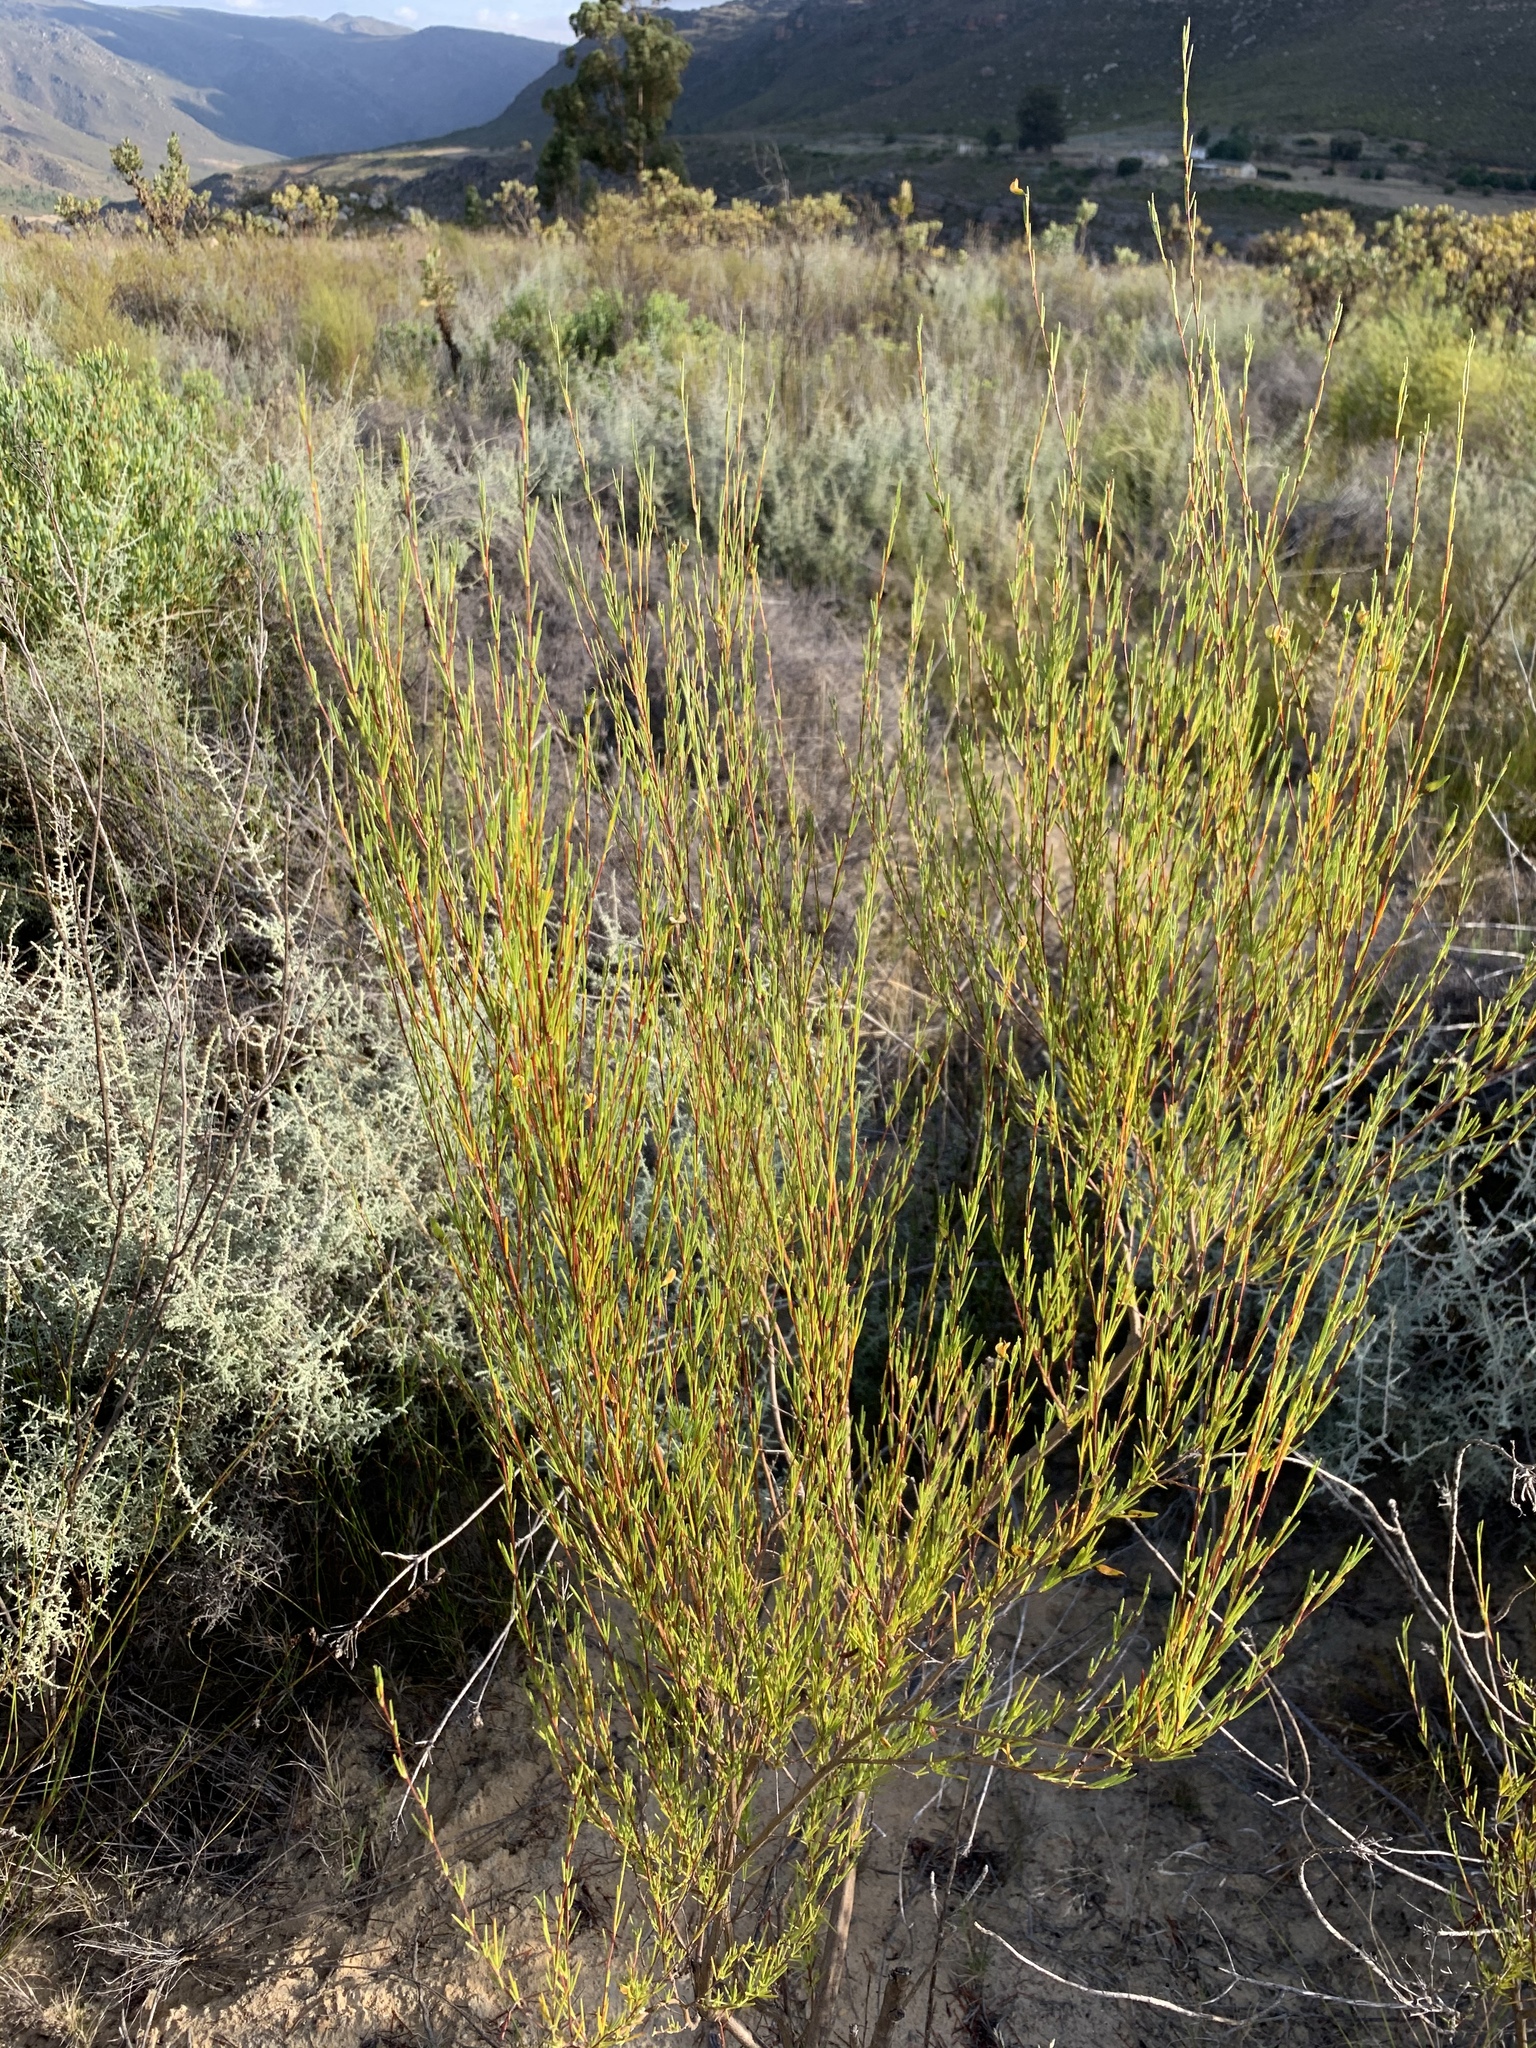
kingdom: Plantae
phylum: Tracheophyta
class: Magnoliopsida
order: Fabales
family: Fabaceae
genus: Aspalathus
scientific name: Aspalathus linearis
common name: Rooibos-tea
